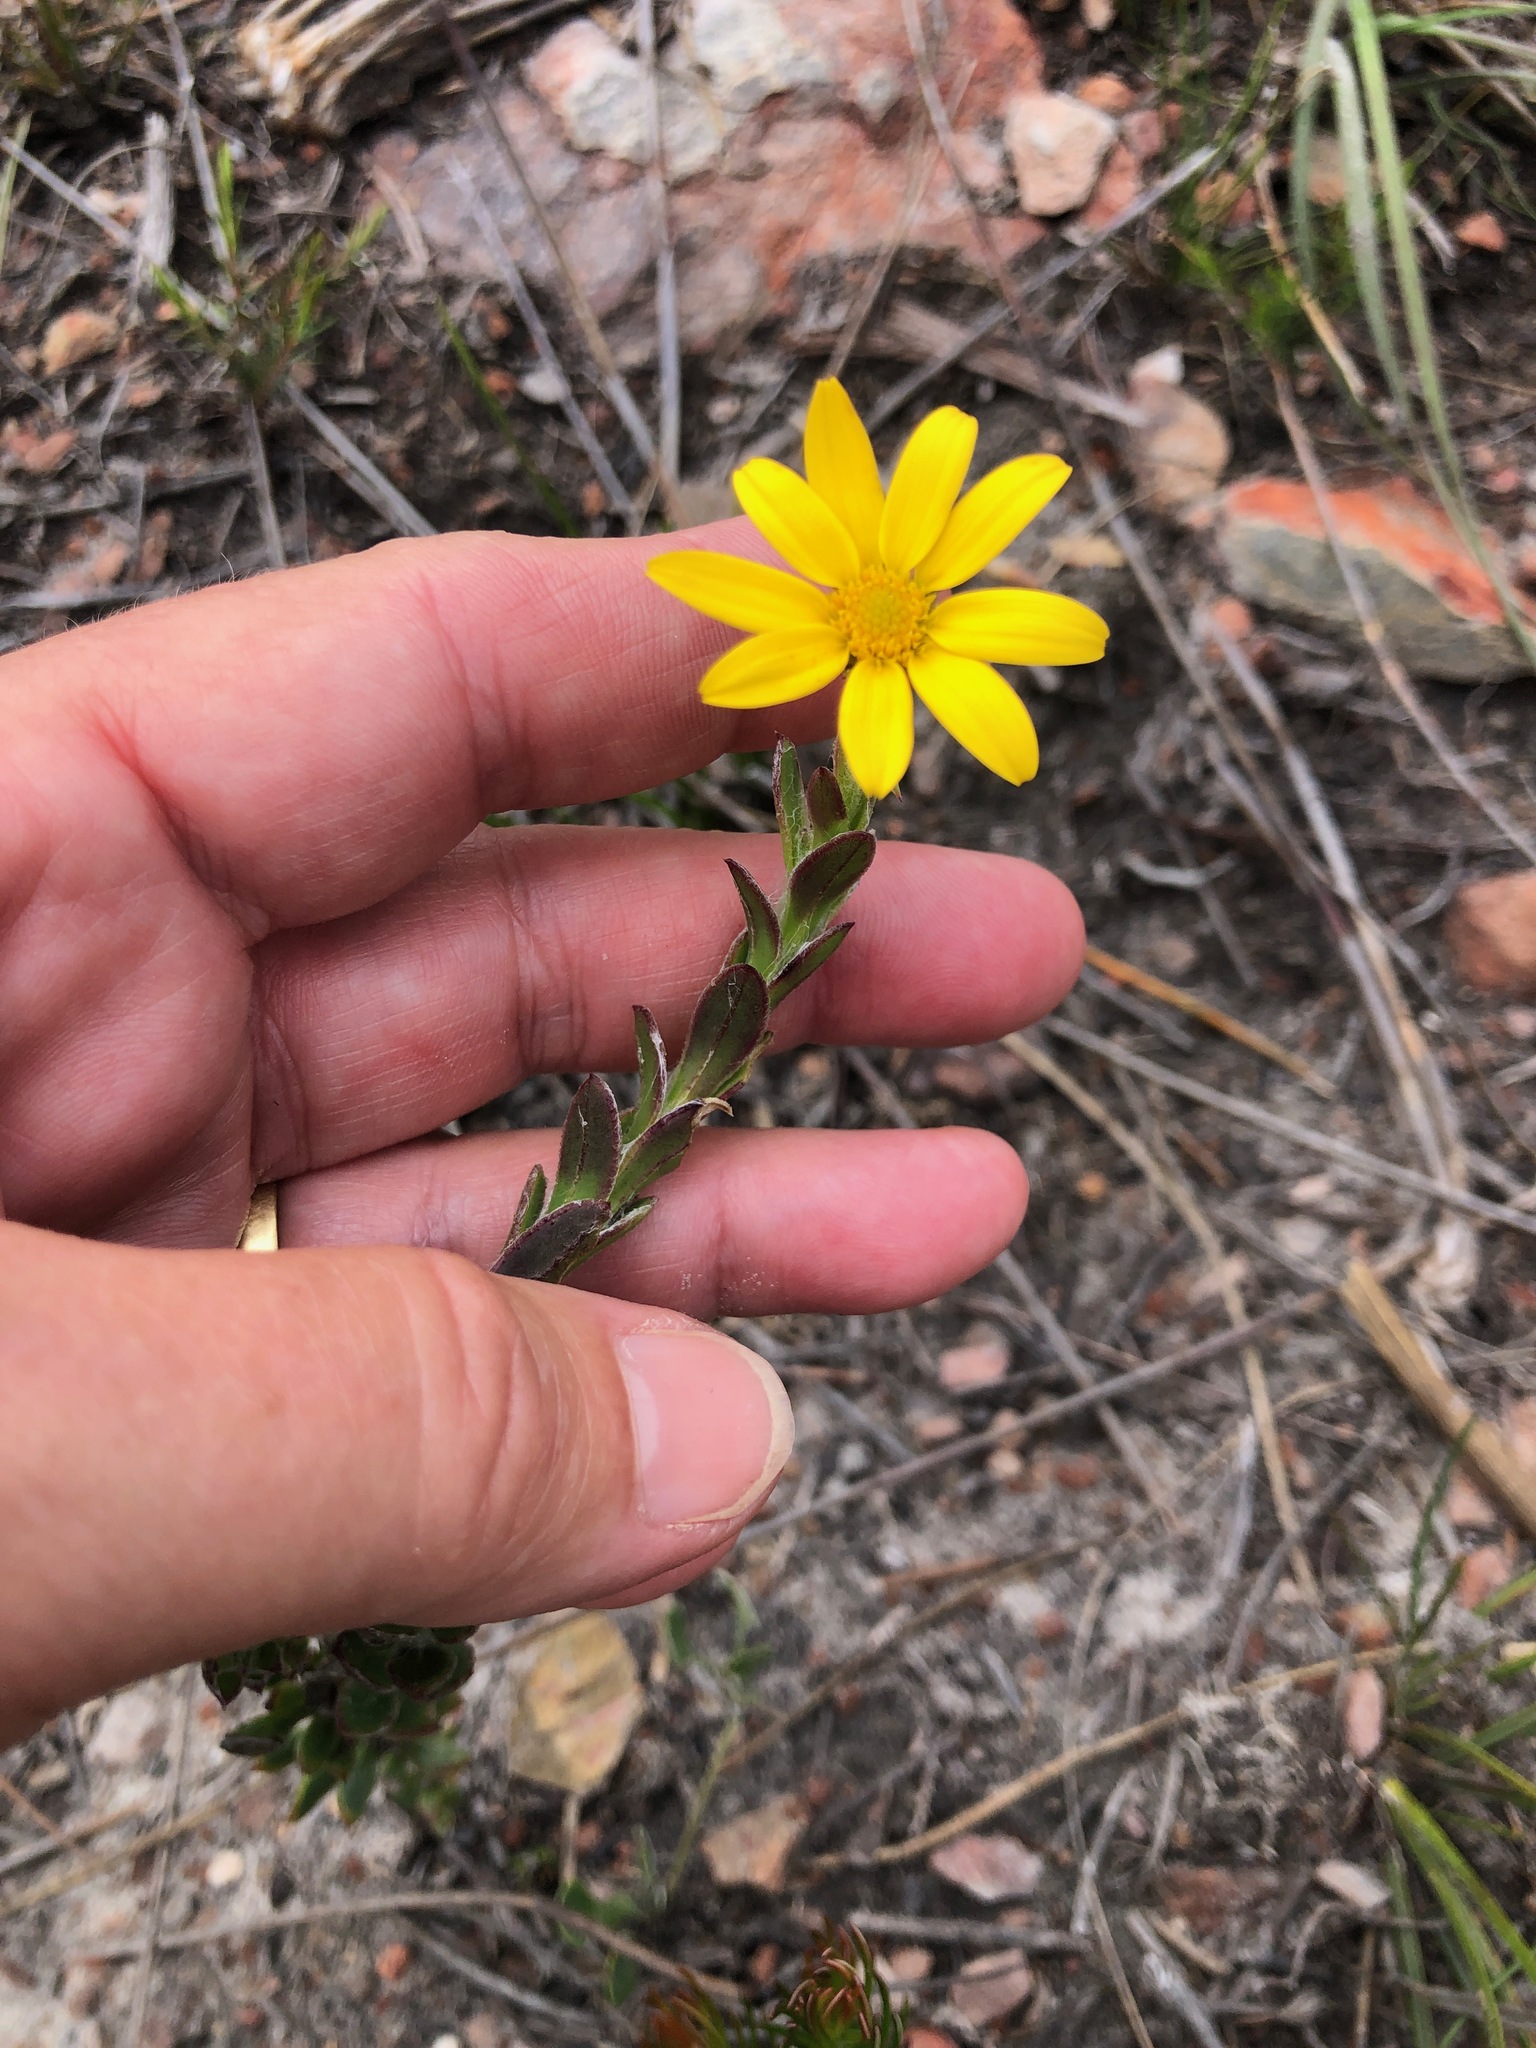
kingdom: Plantae
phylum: Tracheophyta
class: Magnoliopsida
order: Asterales
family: Asteraceae
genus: Osteospermum
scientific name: Osteospermum polygaloides
